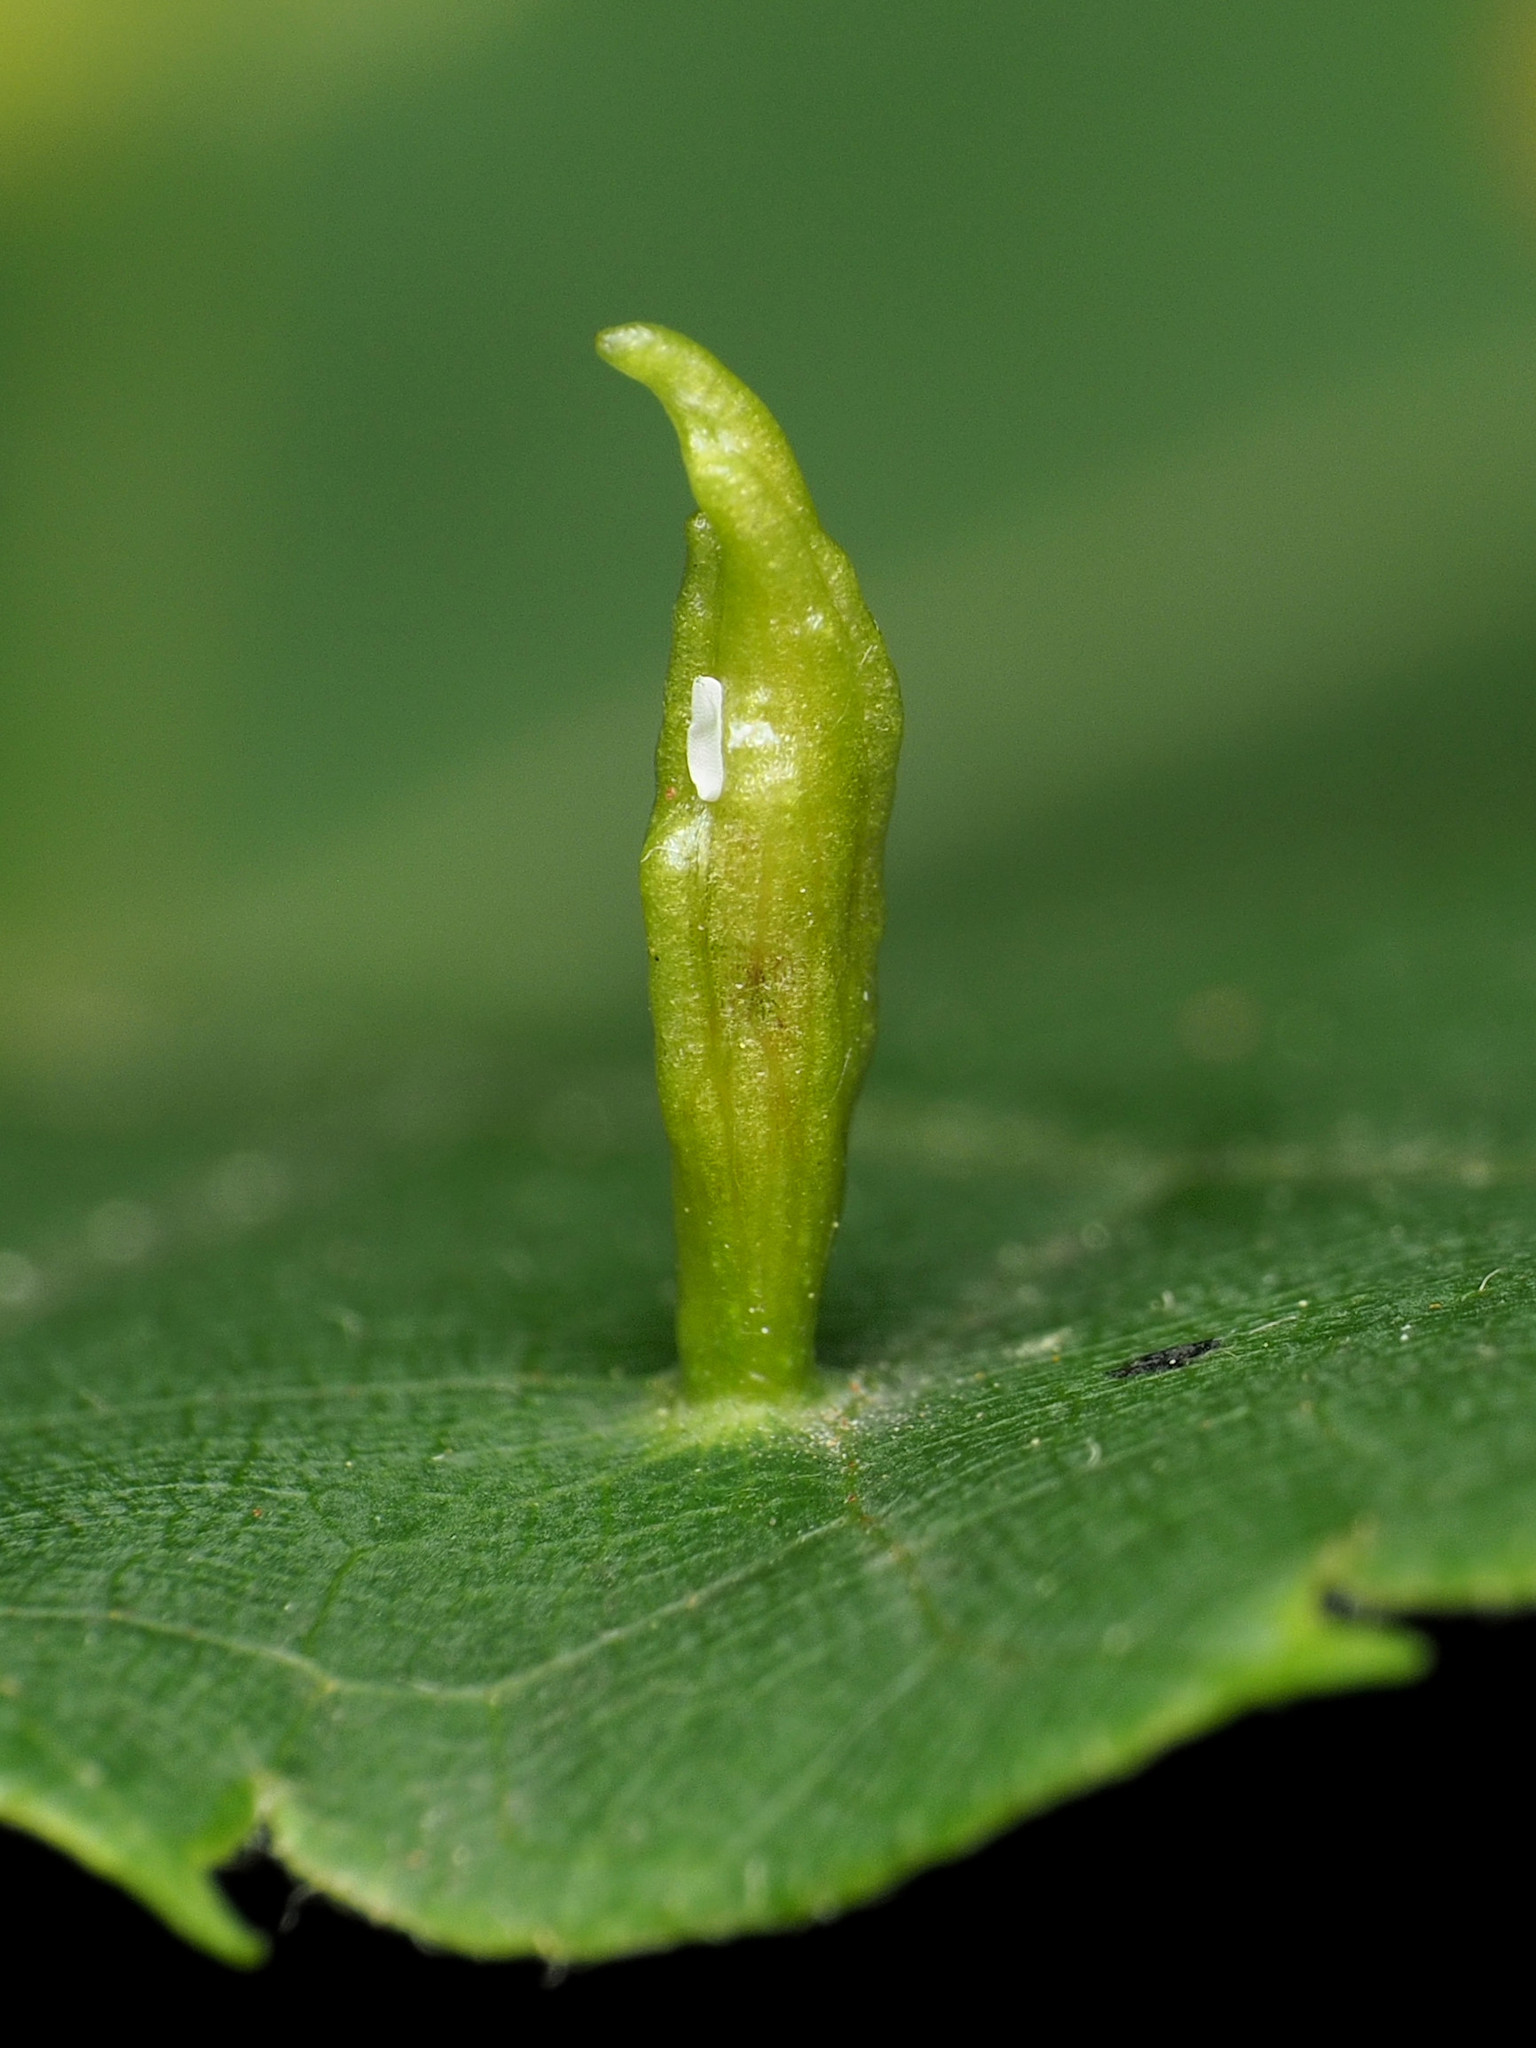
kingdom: Animalia
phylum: Arthropoda
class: Arachnida
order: Trombidiformes
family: Eriophyidae
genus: Eriophyes
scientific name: Eriophyes tiliae
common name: Red nail gall mite
